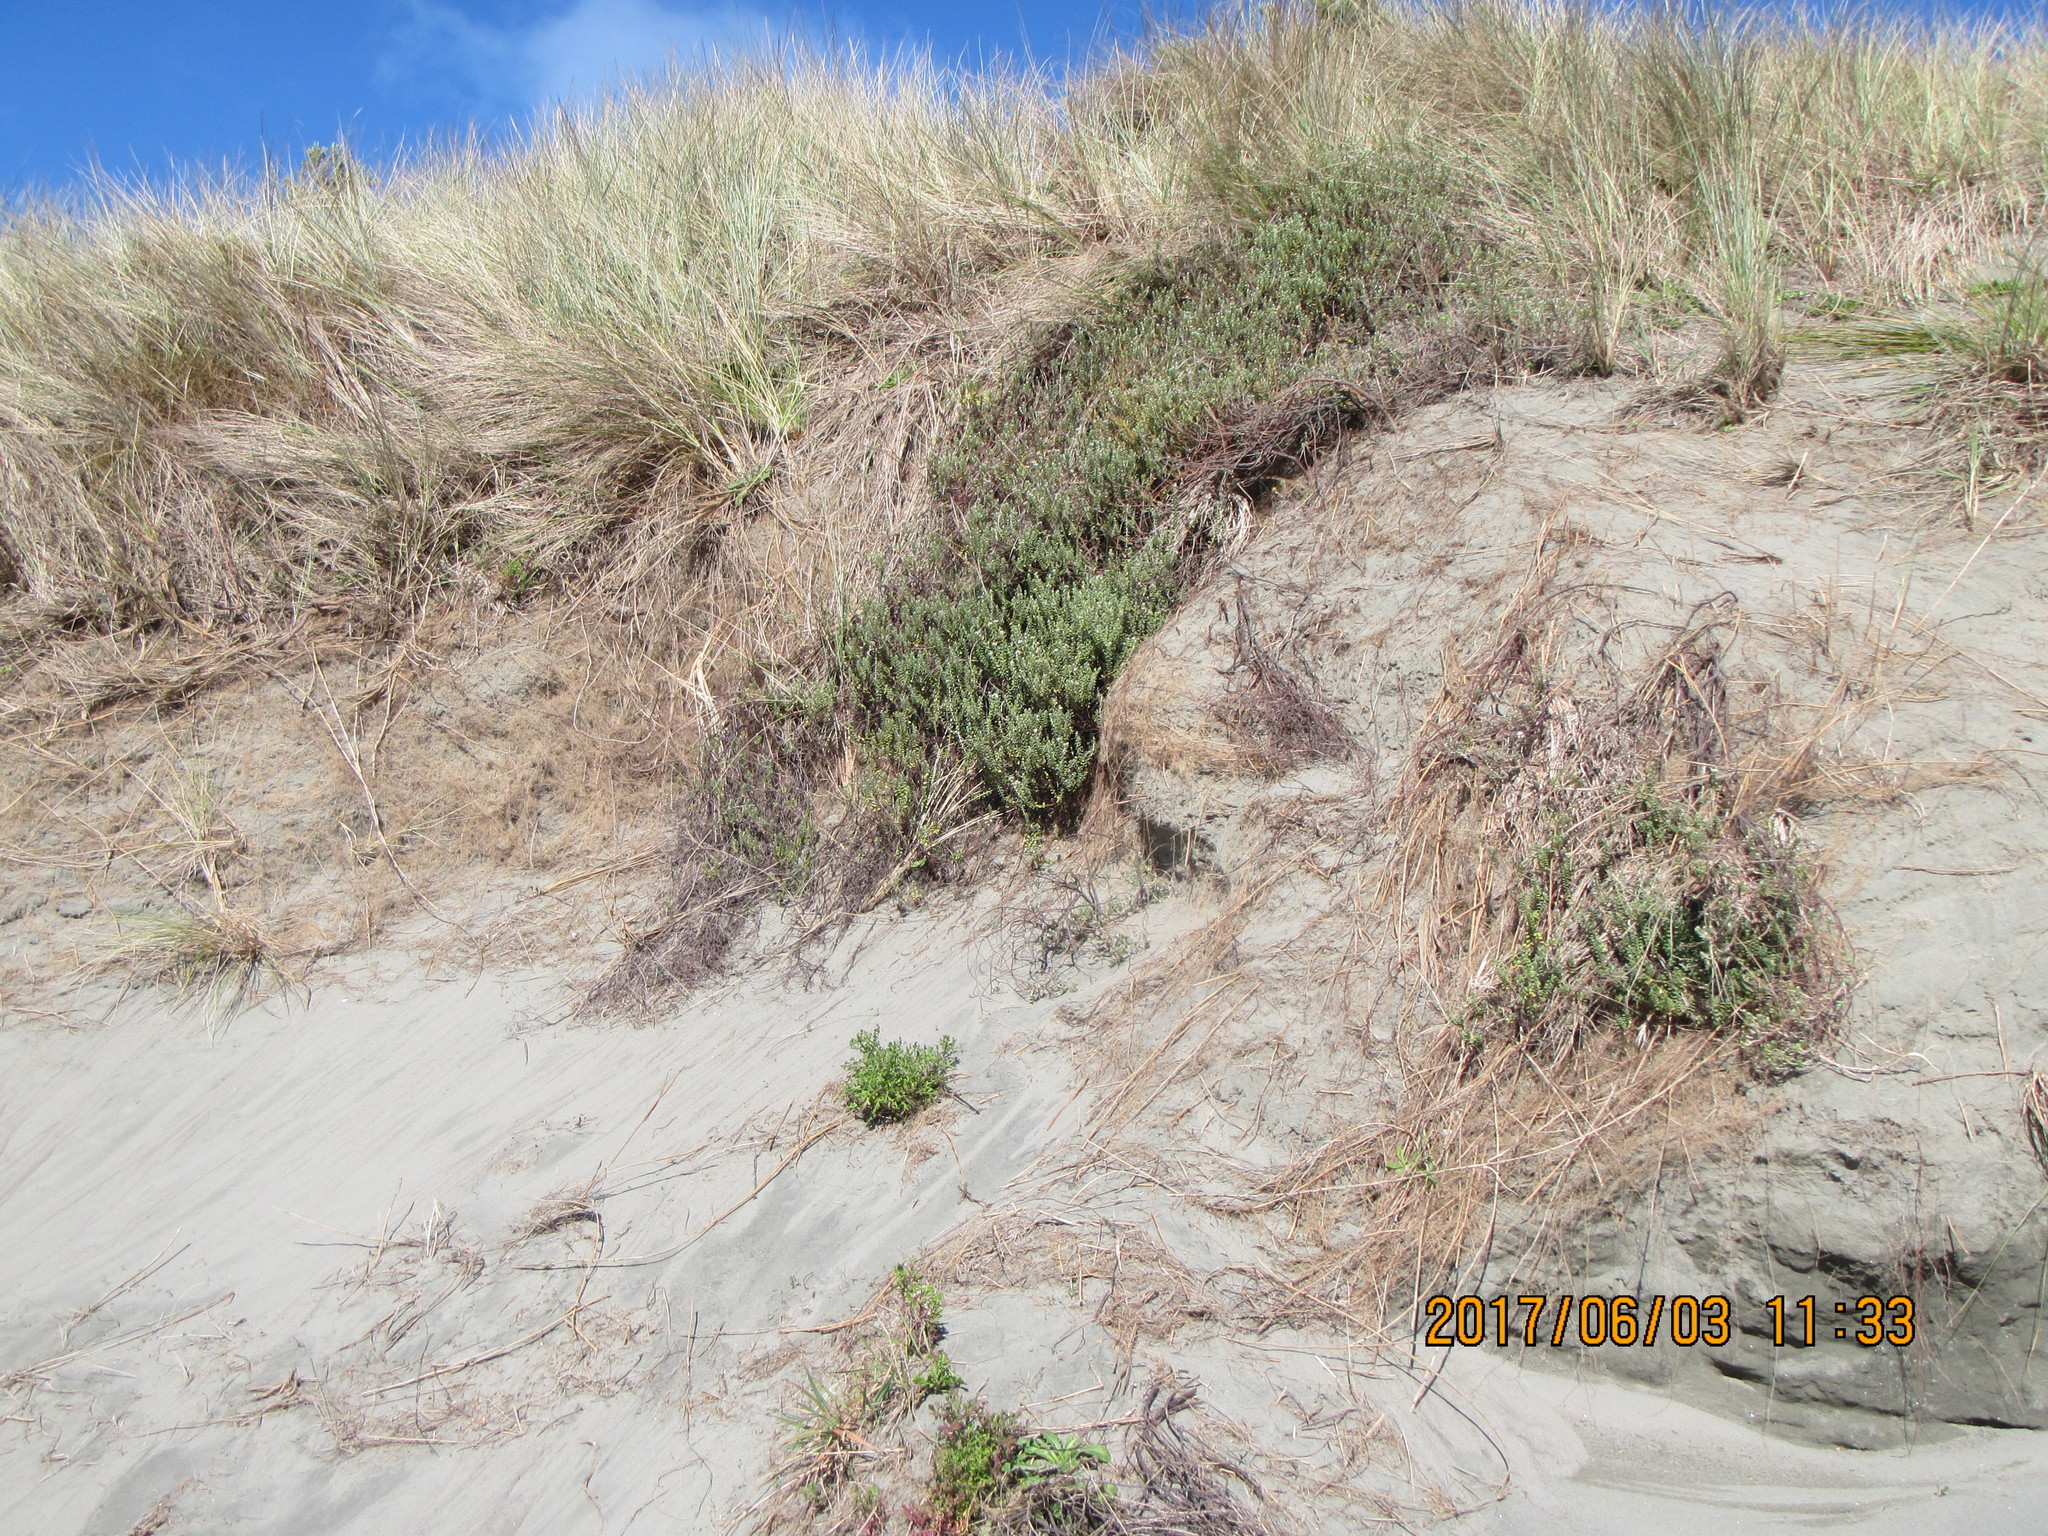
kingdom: Plantae
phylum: Tracheophyta
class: Magnoliopsida
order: Malvales
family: Thymelaeaceae
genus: Pimelea
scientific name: Pimelea villosa
